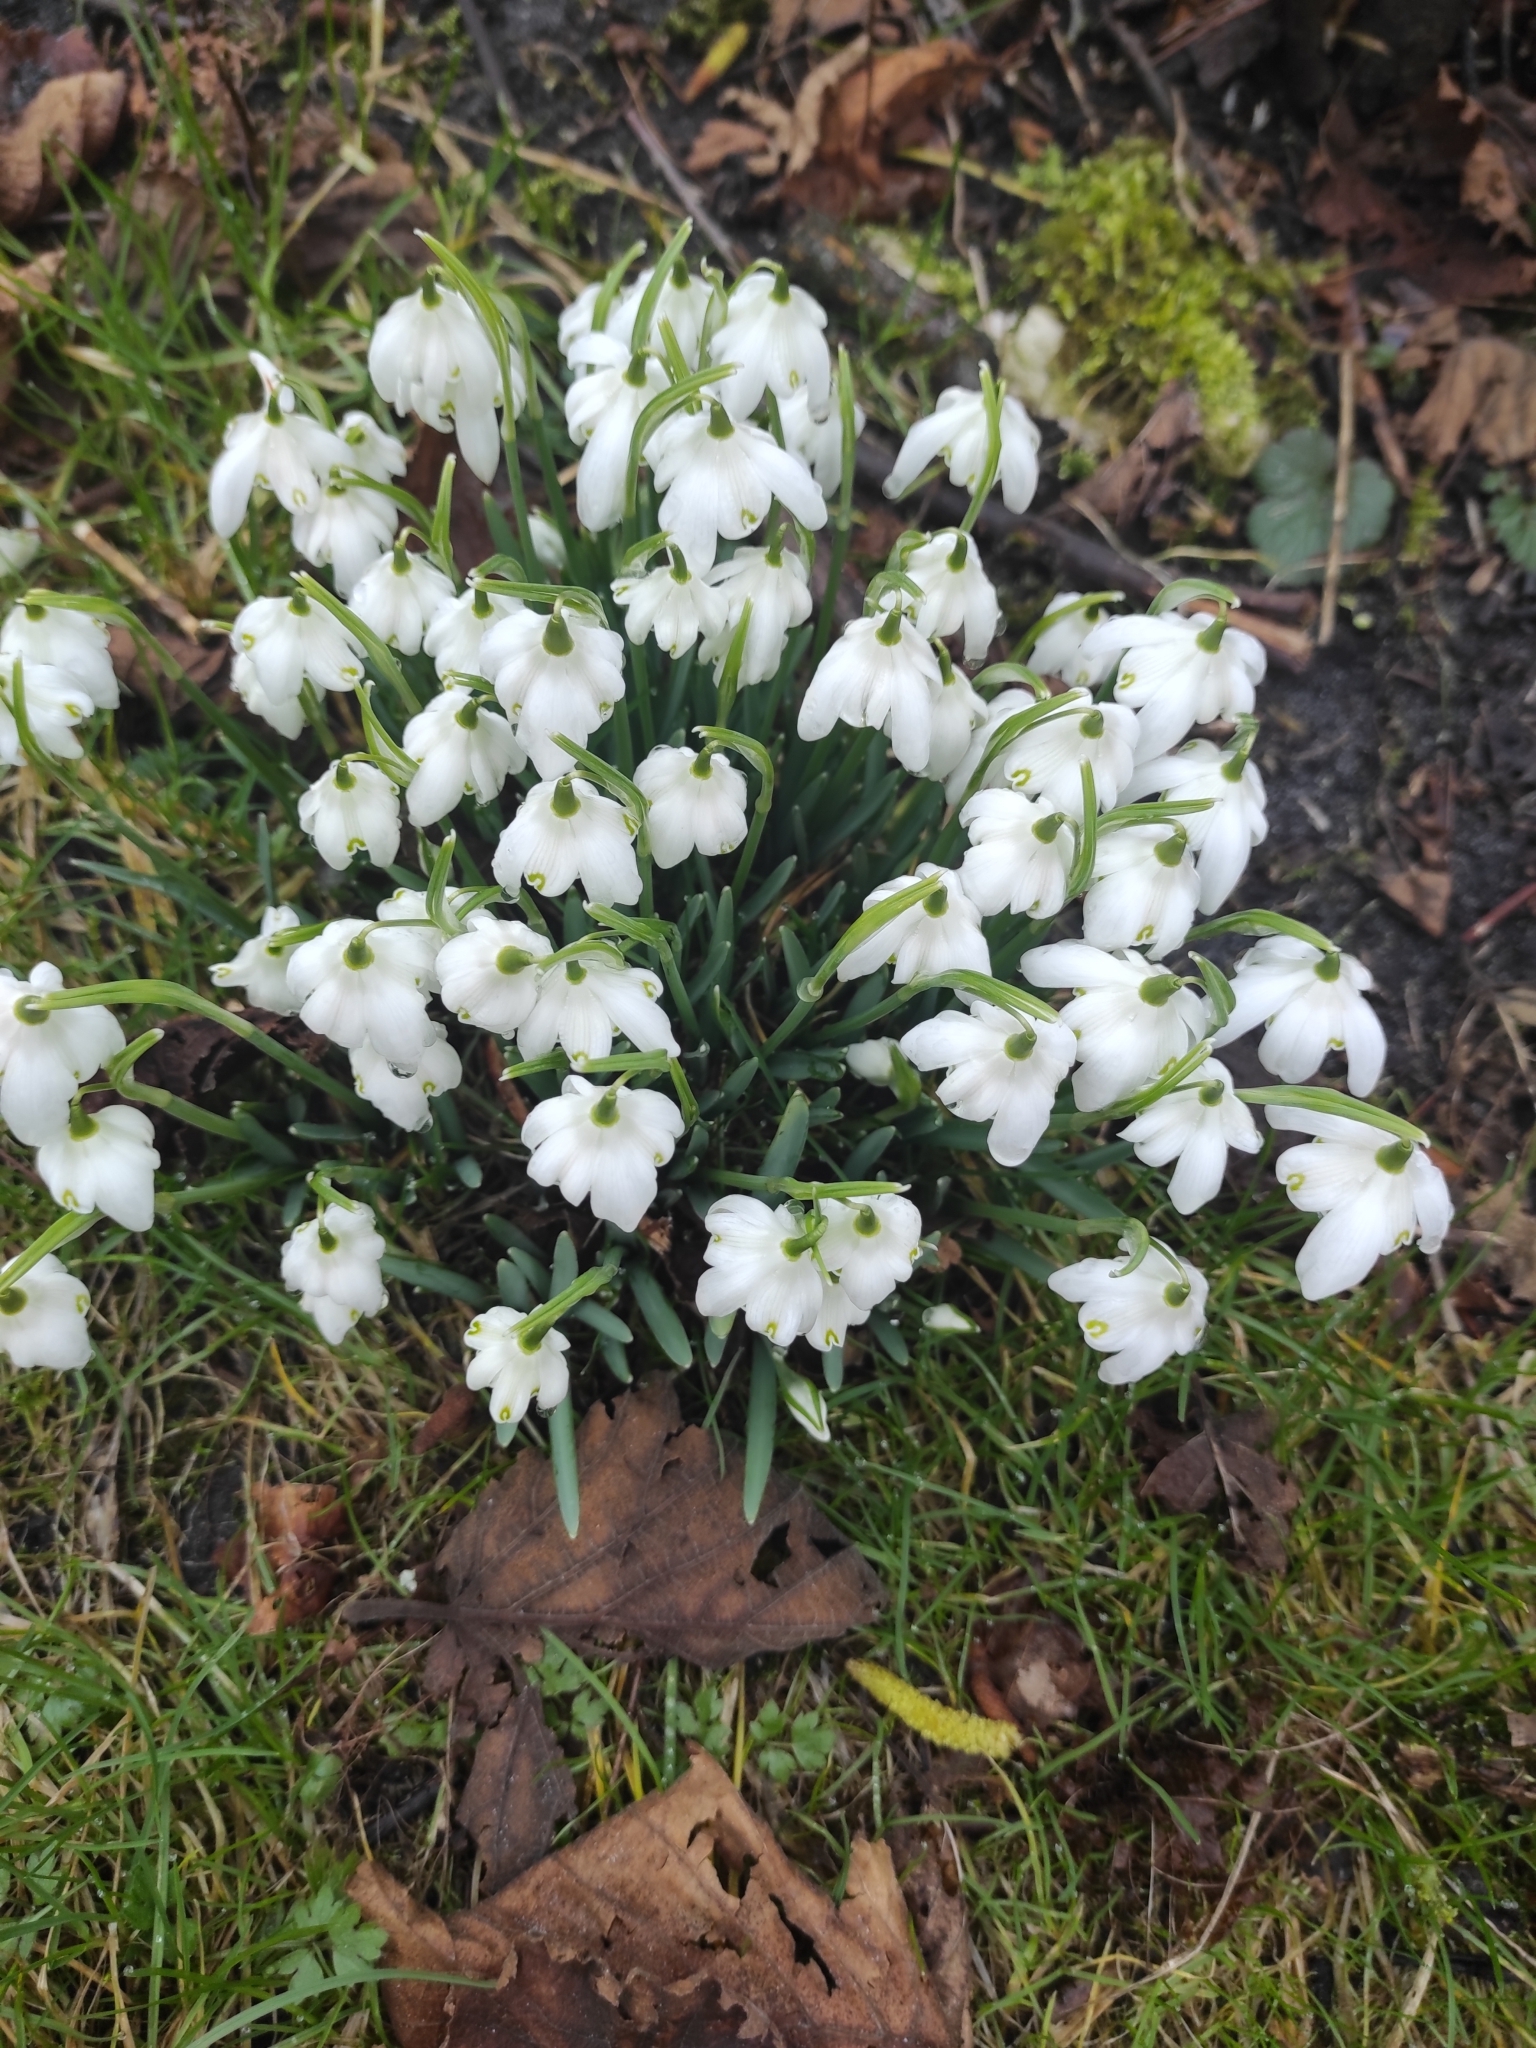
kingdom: Plantae
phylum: Tracheophyta
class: Liliopsida
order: Asparagales
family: Amaryllidaceae
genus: Galanthus
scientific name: Galanthus nivalis
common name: Snowdrop
